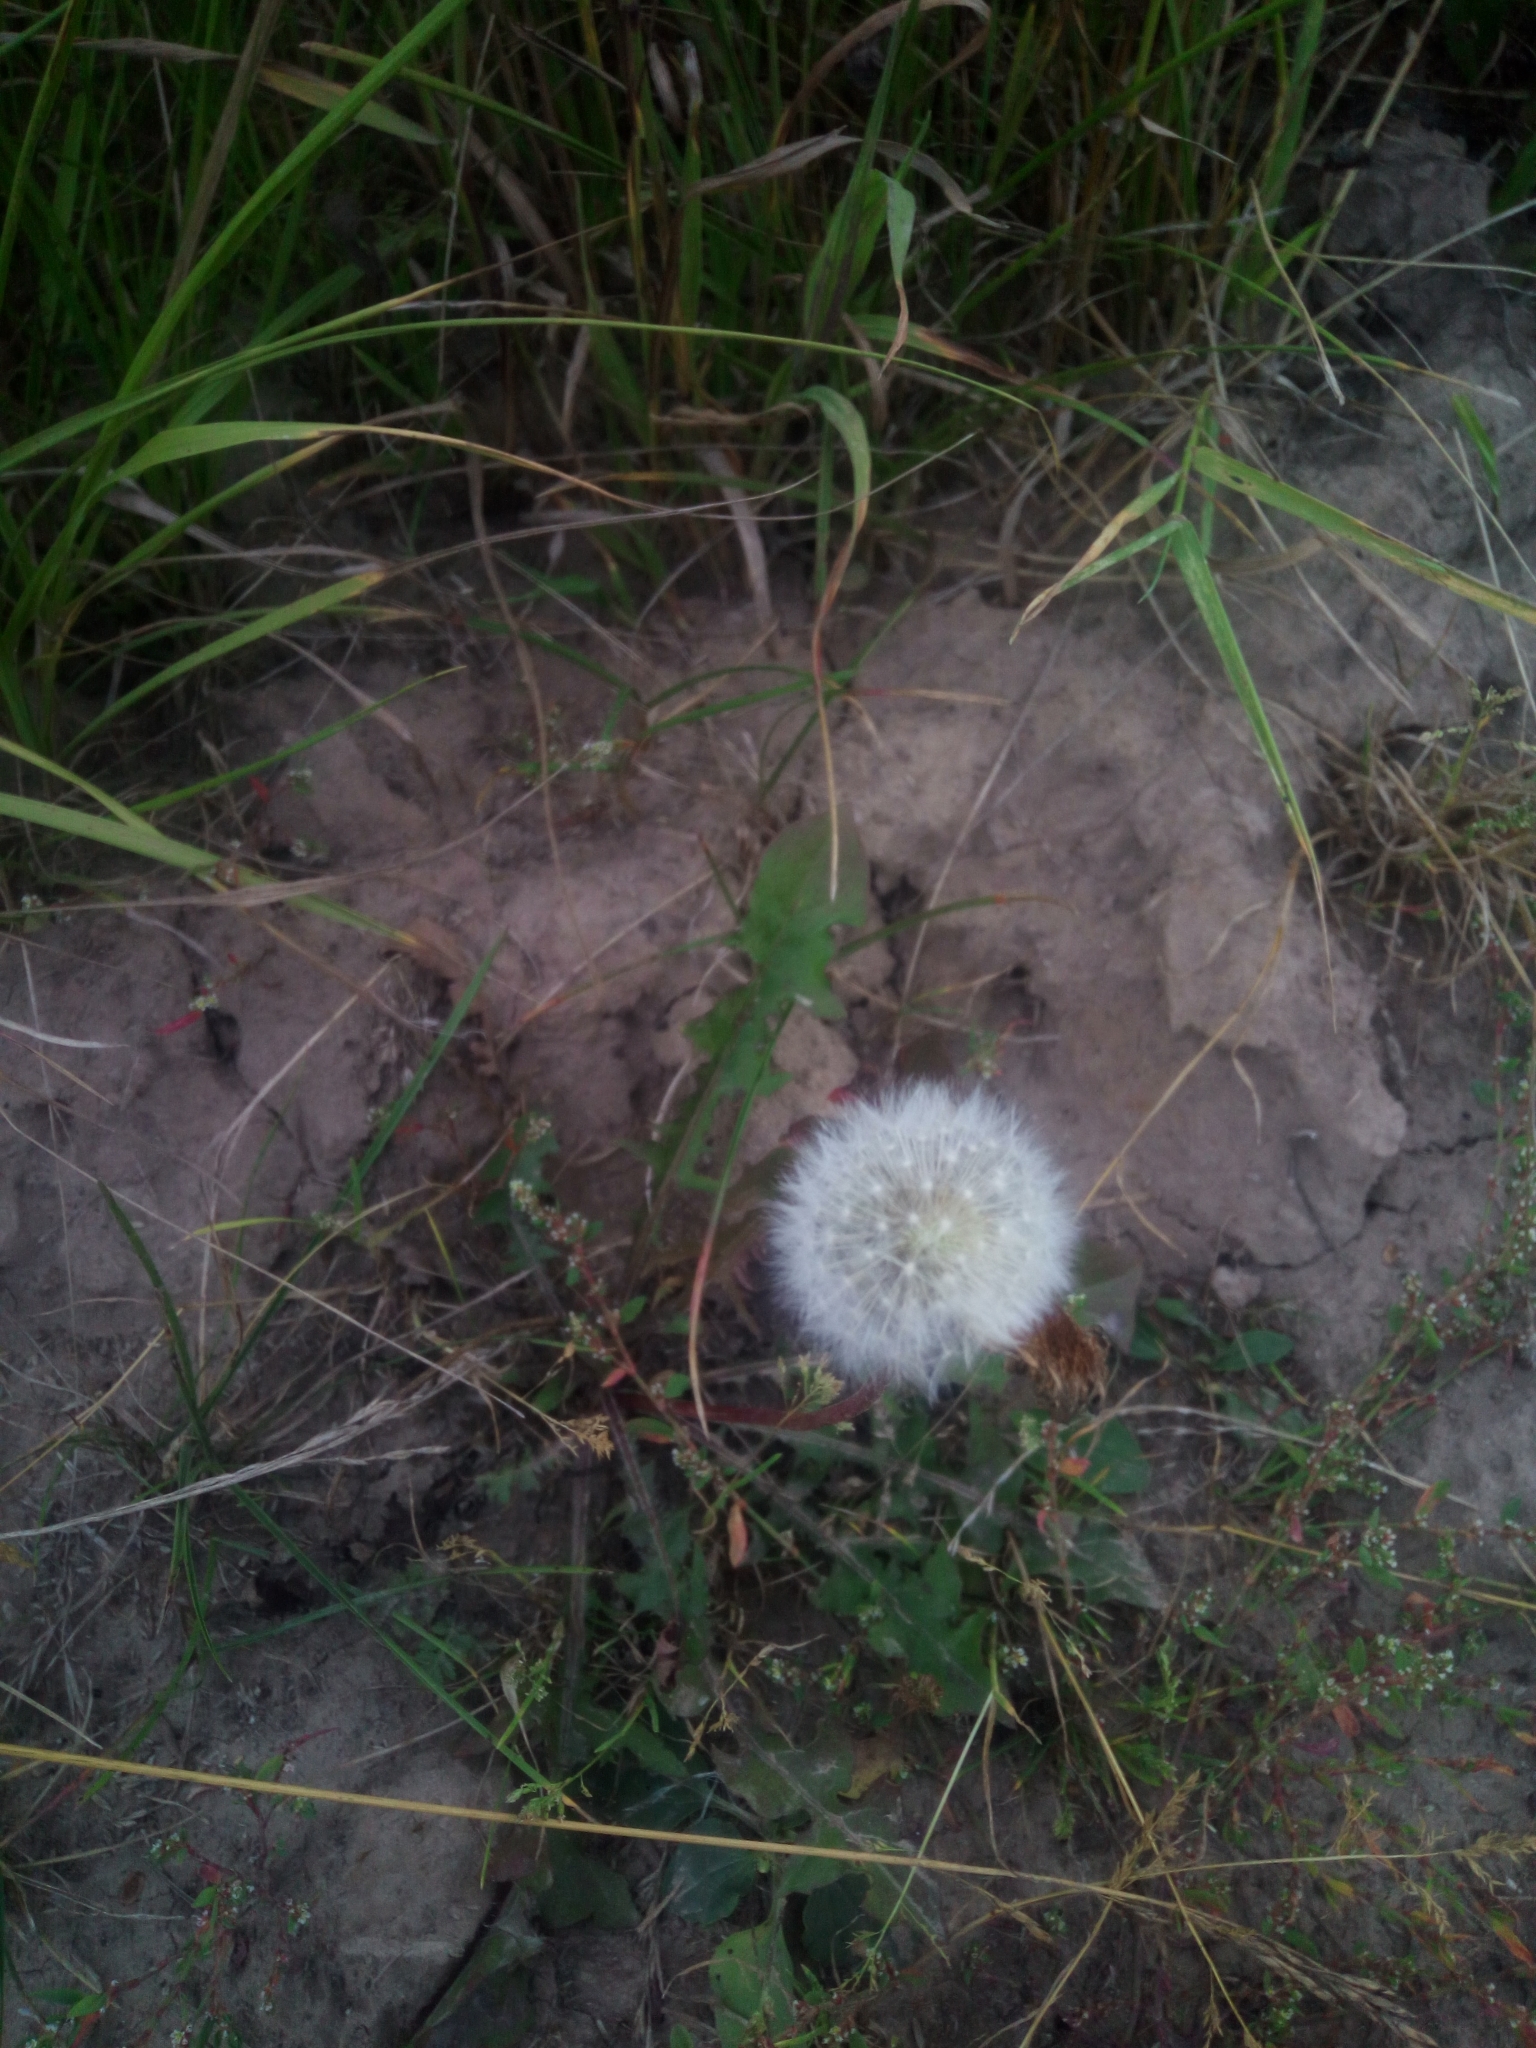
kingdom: Plantae
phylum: Tracheophyta
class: Magnoliopsida
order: Asterales
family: Asteraceae
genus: Taraxacum
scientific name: Taraxacum officinale
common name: Common dandelion
